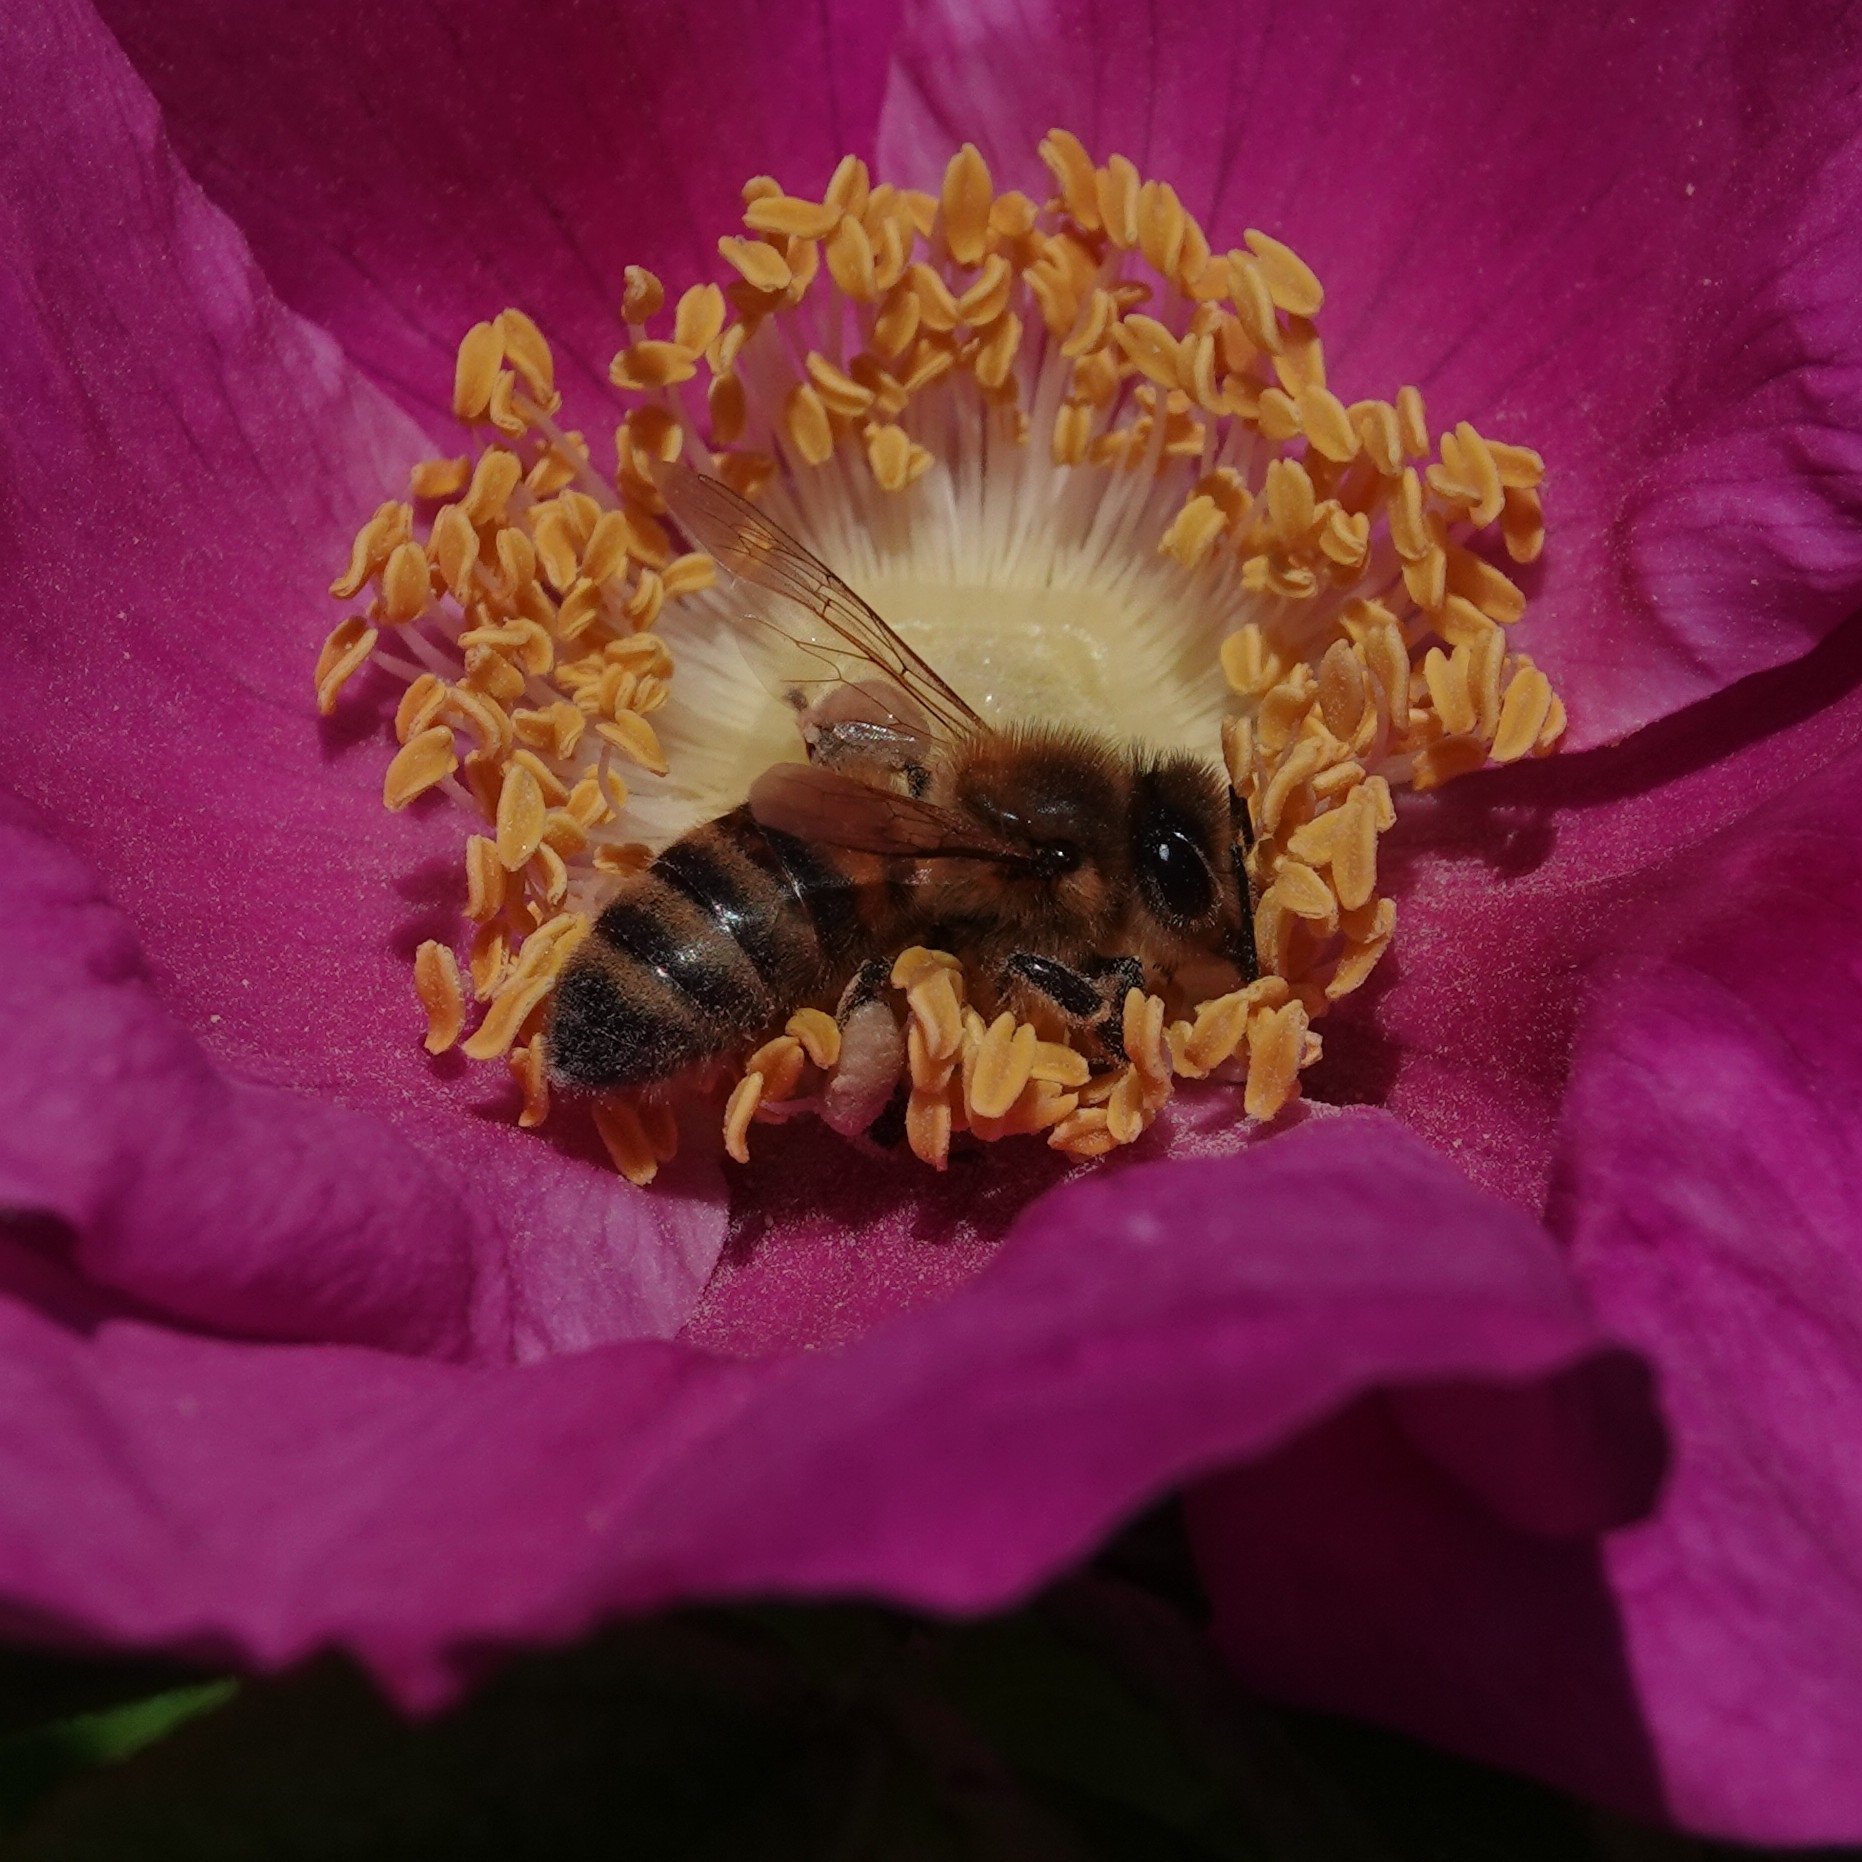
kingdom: Animalia
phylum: Arthropoda
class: Insecta
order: Hymenoptera
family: Apidae
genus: Apis
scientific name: Apis mellifera
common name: Honey bee
